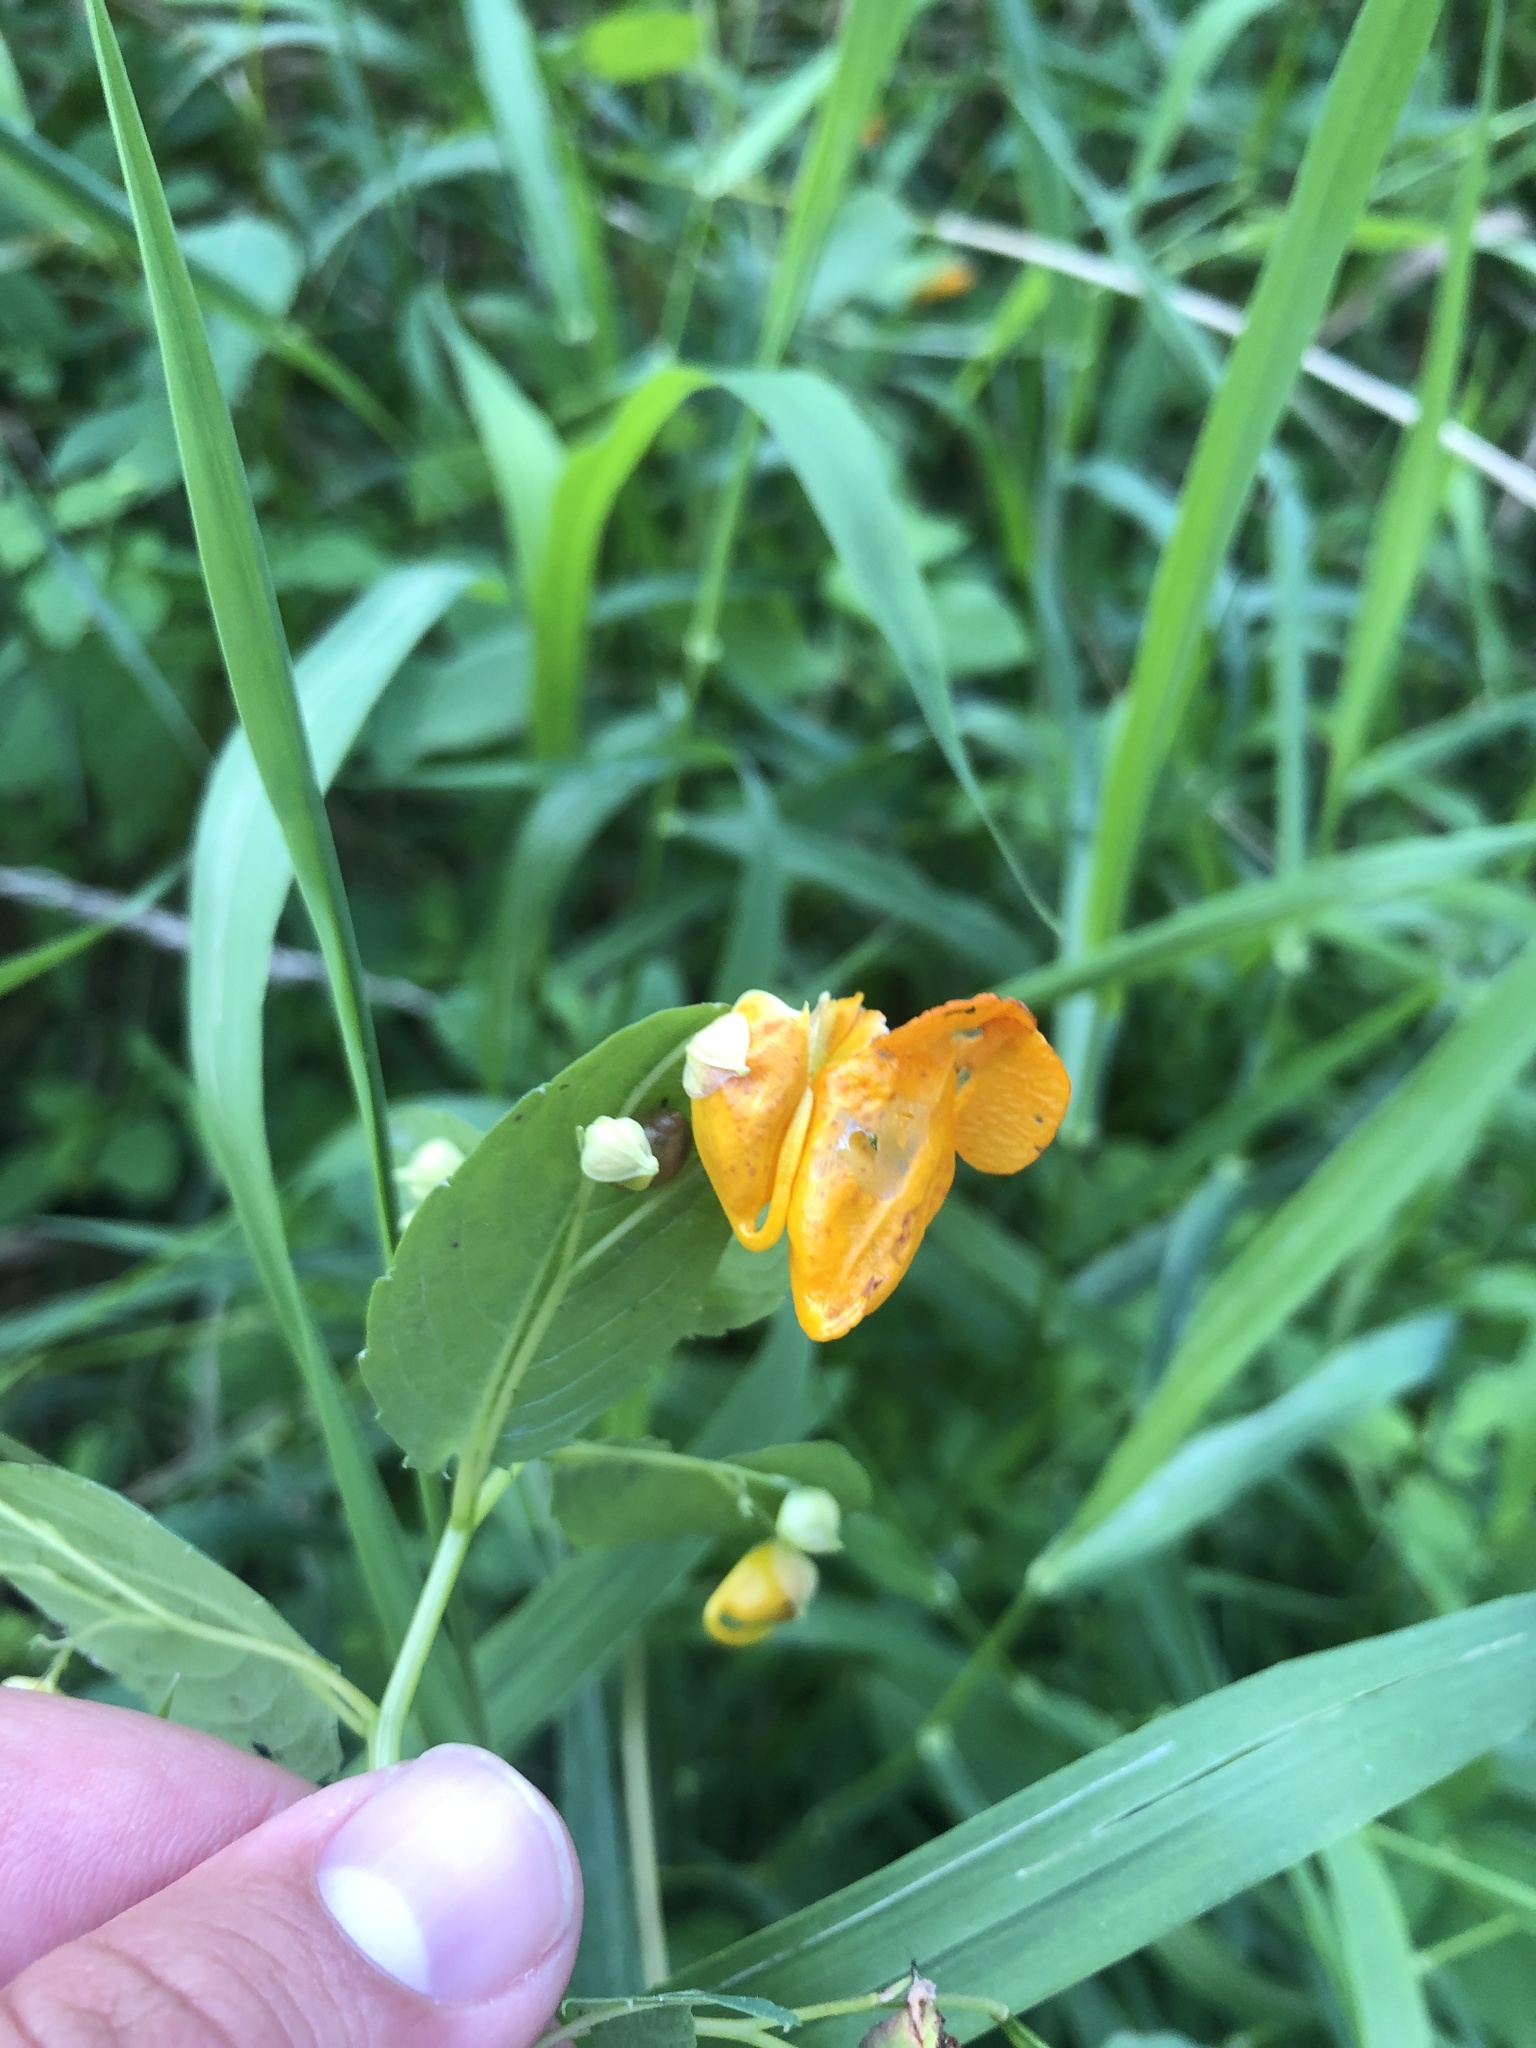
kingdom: Plantae
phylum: Tracheophyta
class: Magnoliopsida
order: Ericales
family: Balsaminaceae
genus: Impatiens
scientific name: Impatiens capensis
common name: Orange balsam
